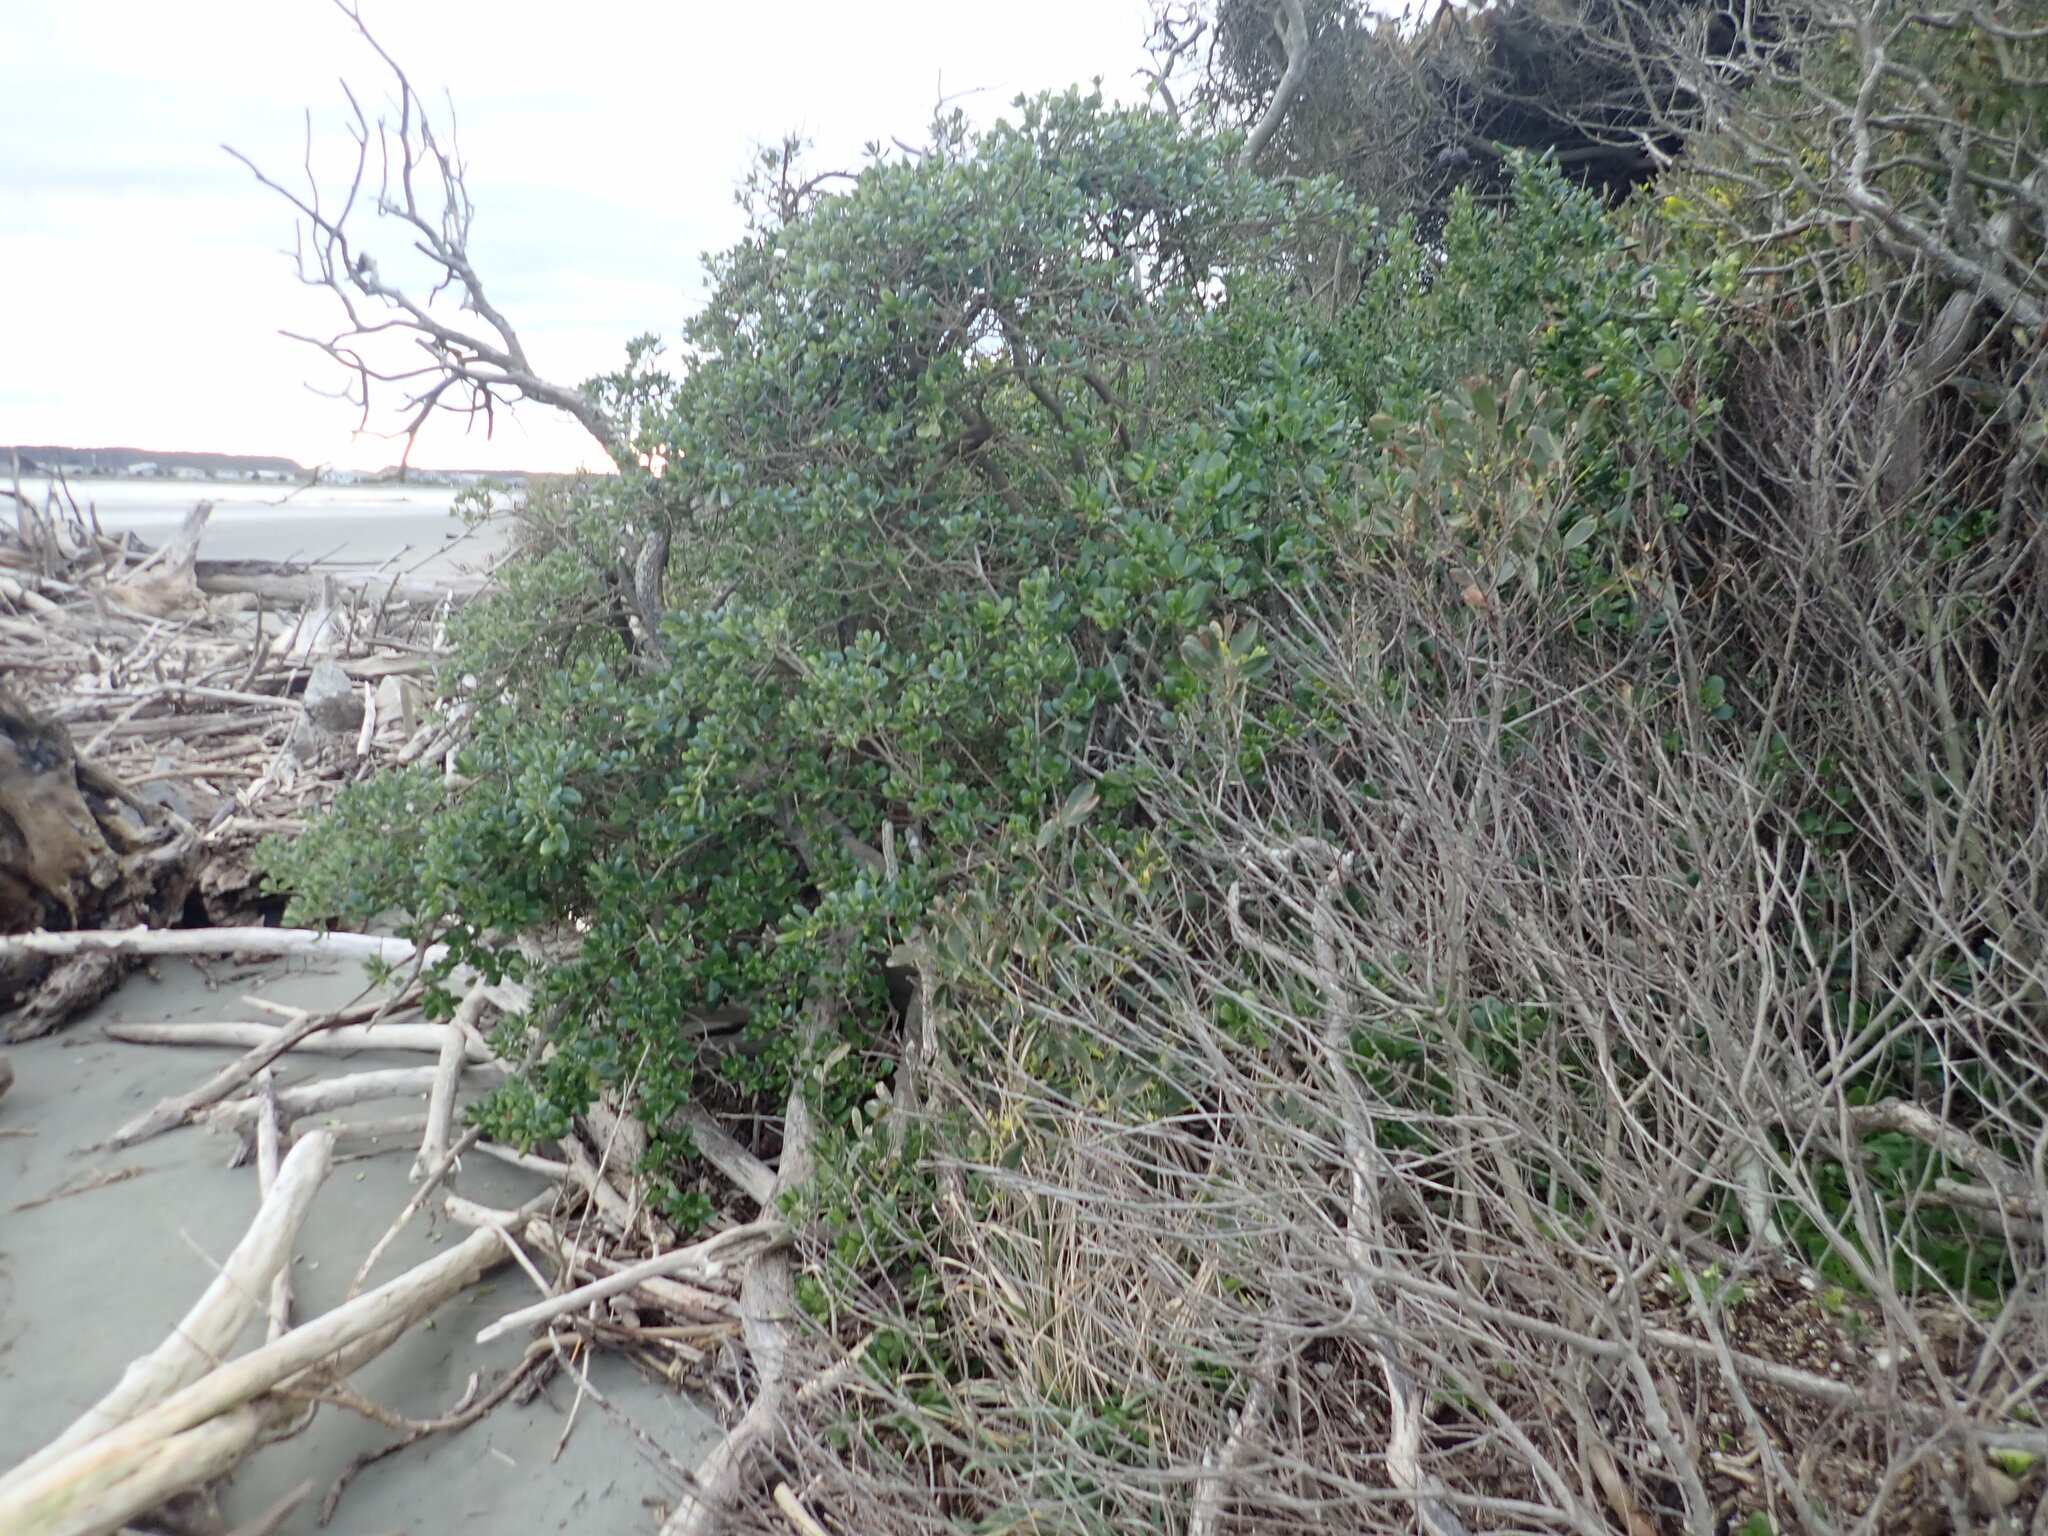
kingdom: Plantae
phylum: Tracheophyta
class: Magnoliopsida
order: Gentianales
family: Rubiaceae
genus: Coprosma
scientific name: Coprosma repens
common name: Tree bedstraw
